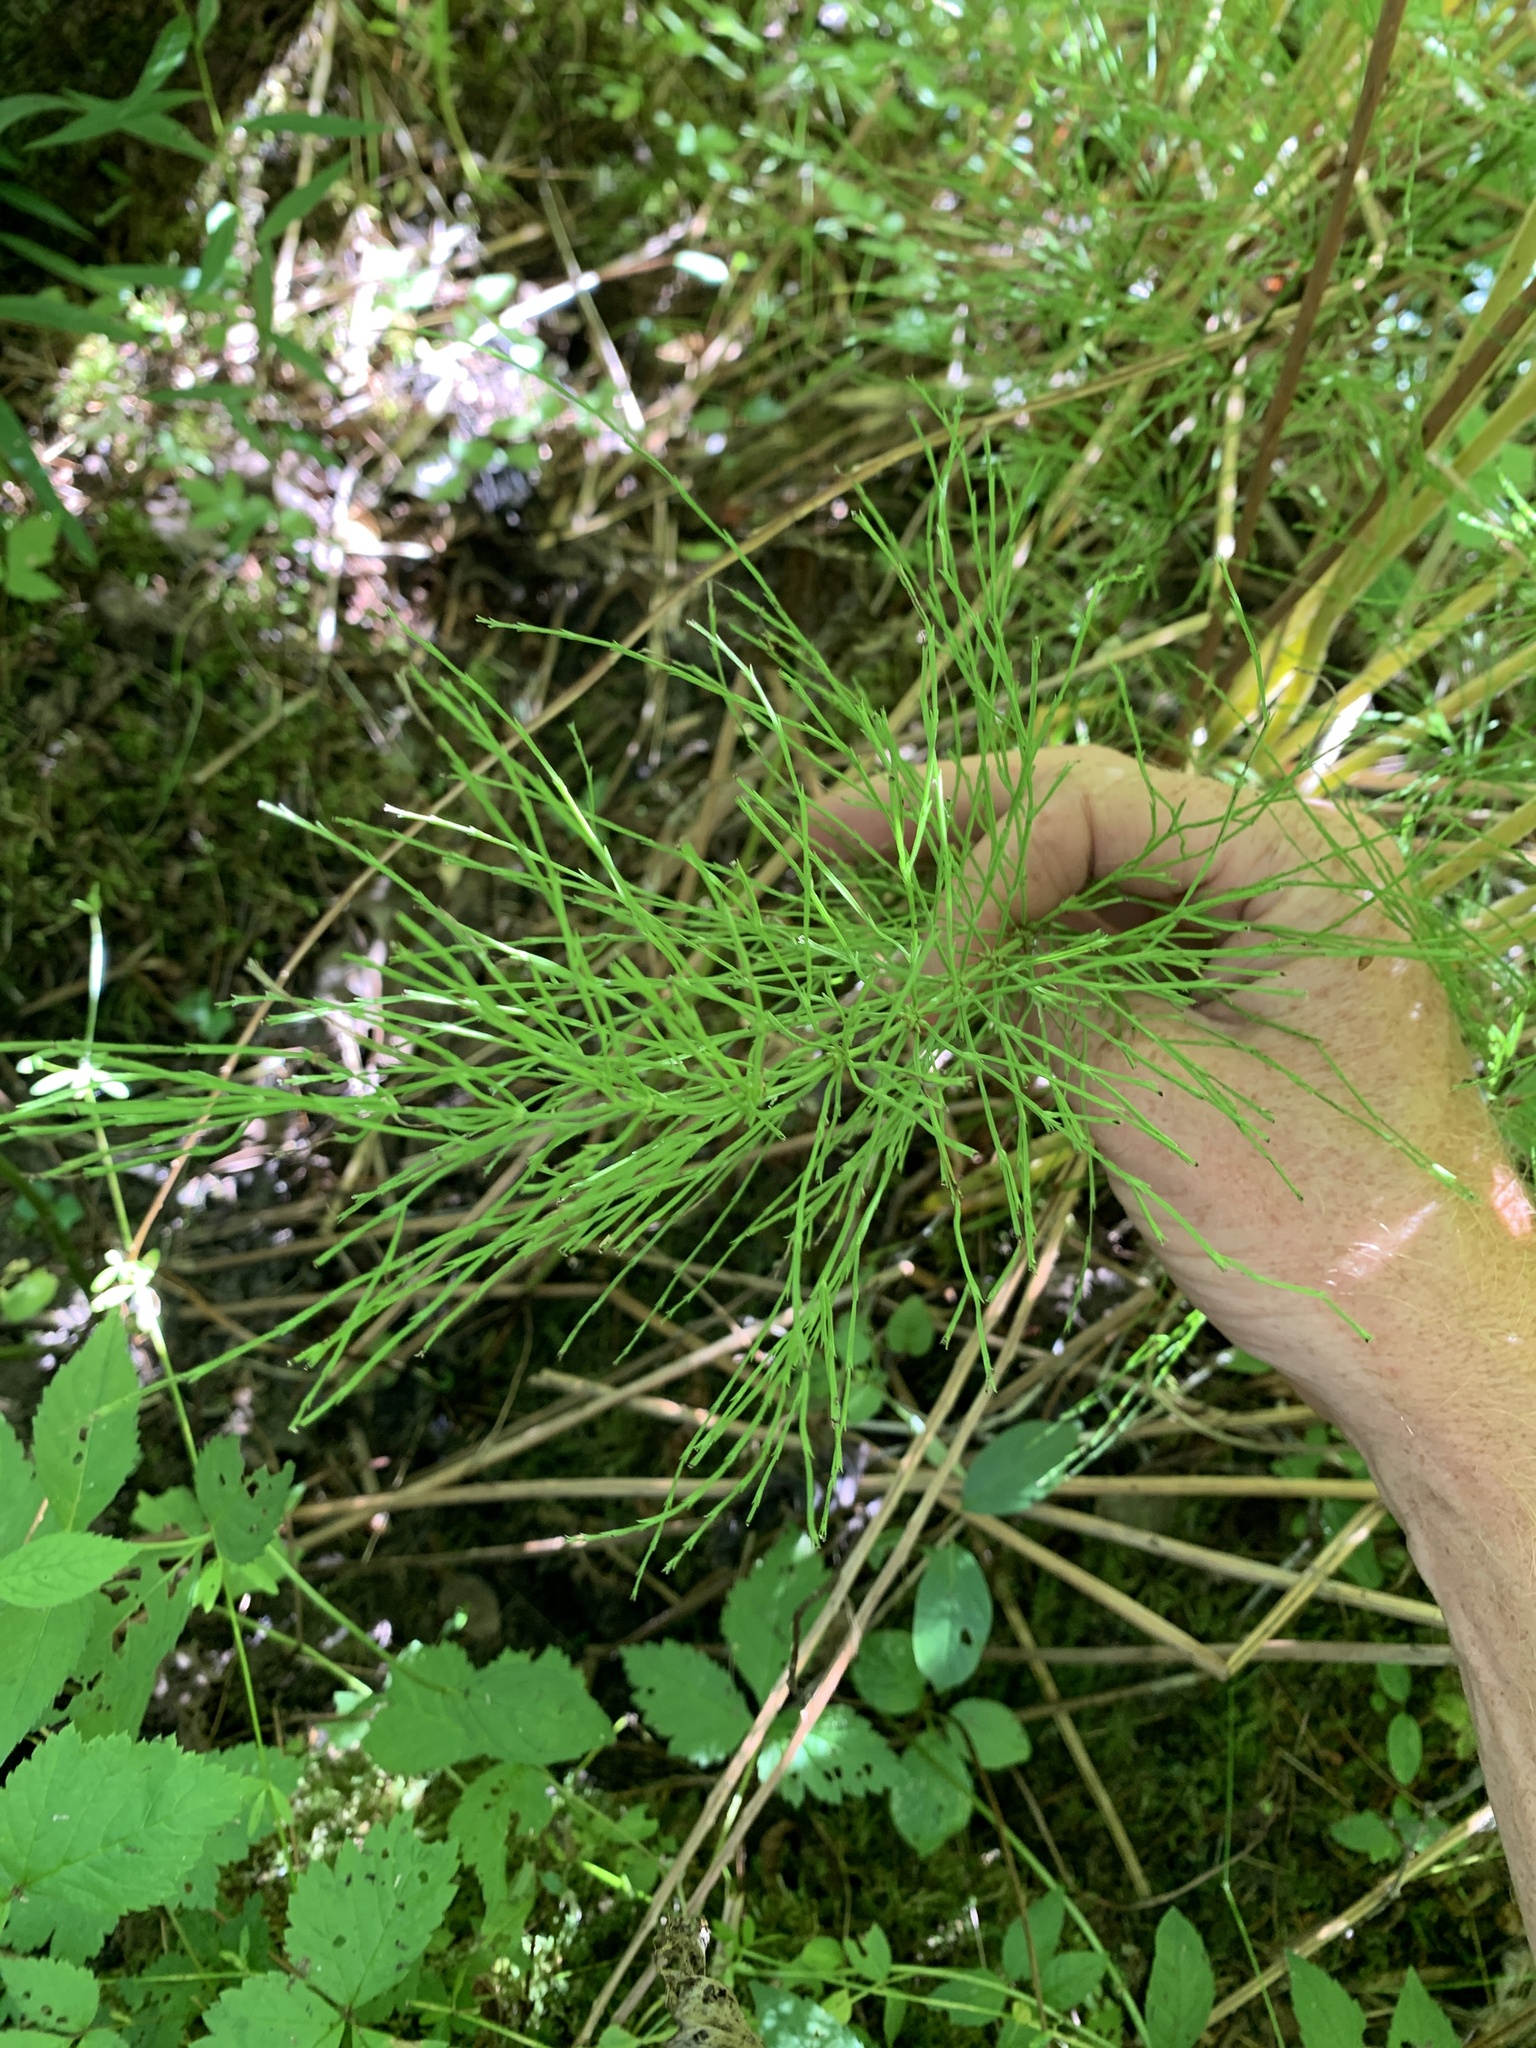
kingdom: Plantae
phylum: Tracheophyta
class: Polypodiopsida
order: Equisetales
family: Equisetaceae
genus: Equisetum
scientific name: Equisetum sylvaticum
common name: Wood horsetail
